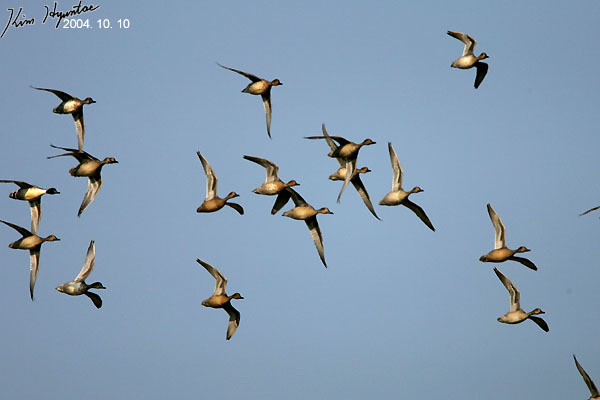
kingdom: Animalia
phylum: Chordata
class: Aves
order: Anseriformes
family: Anatidae
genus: Anas
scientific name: Anas acuta
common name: Northern pintail
